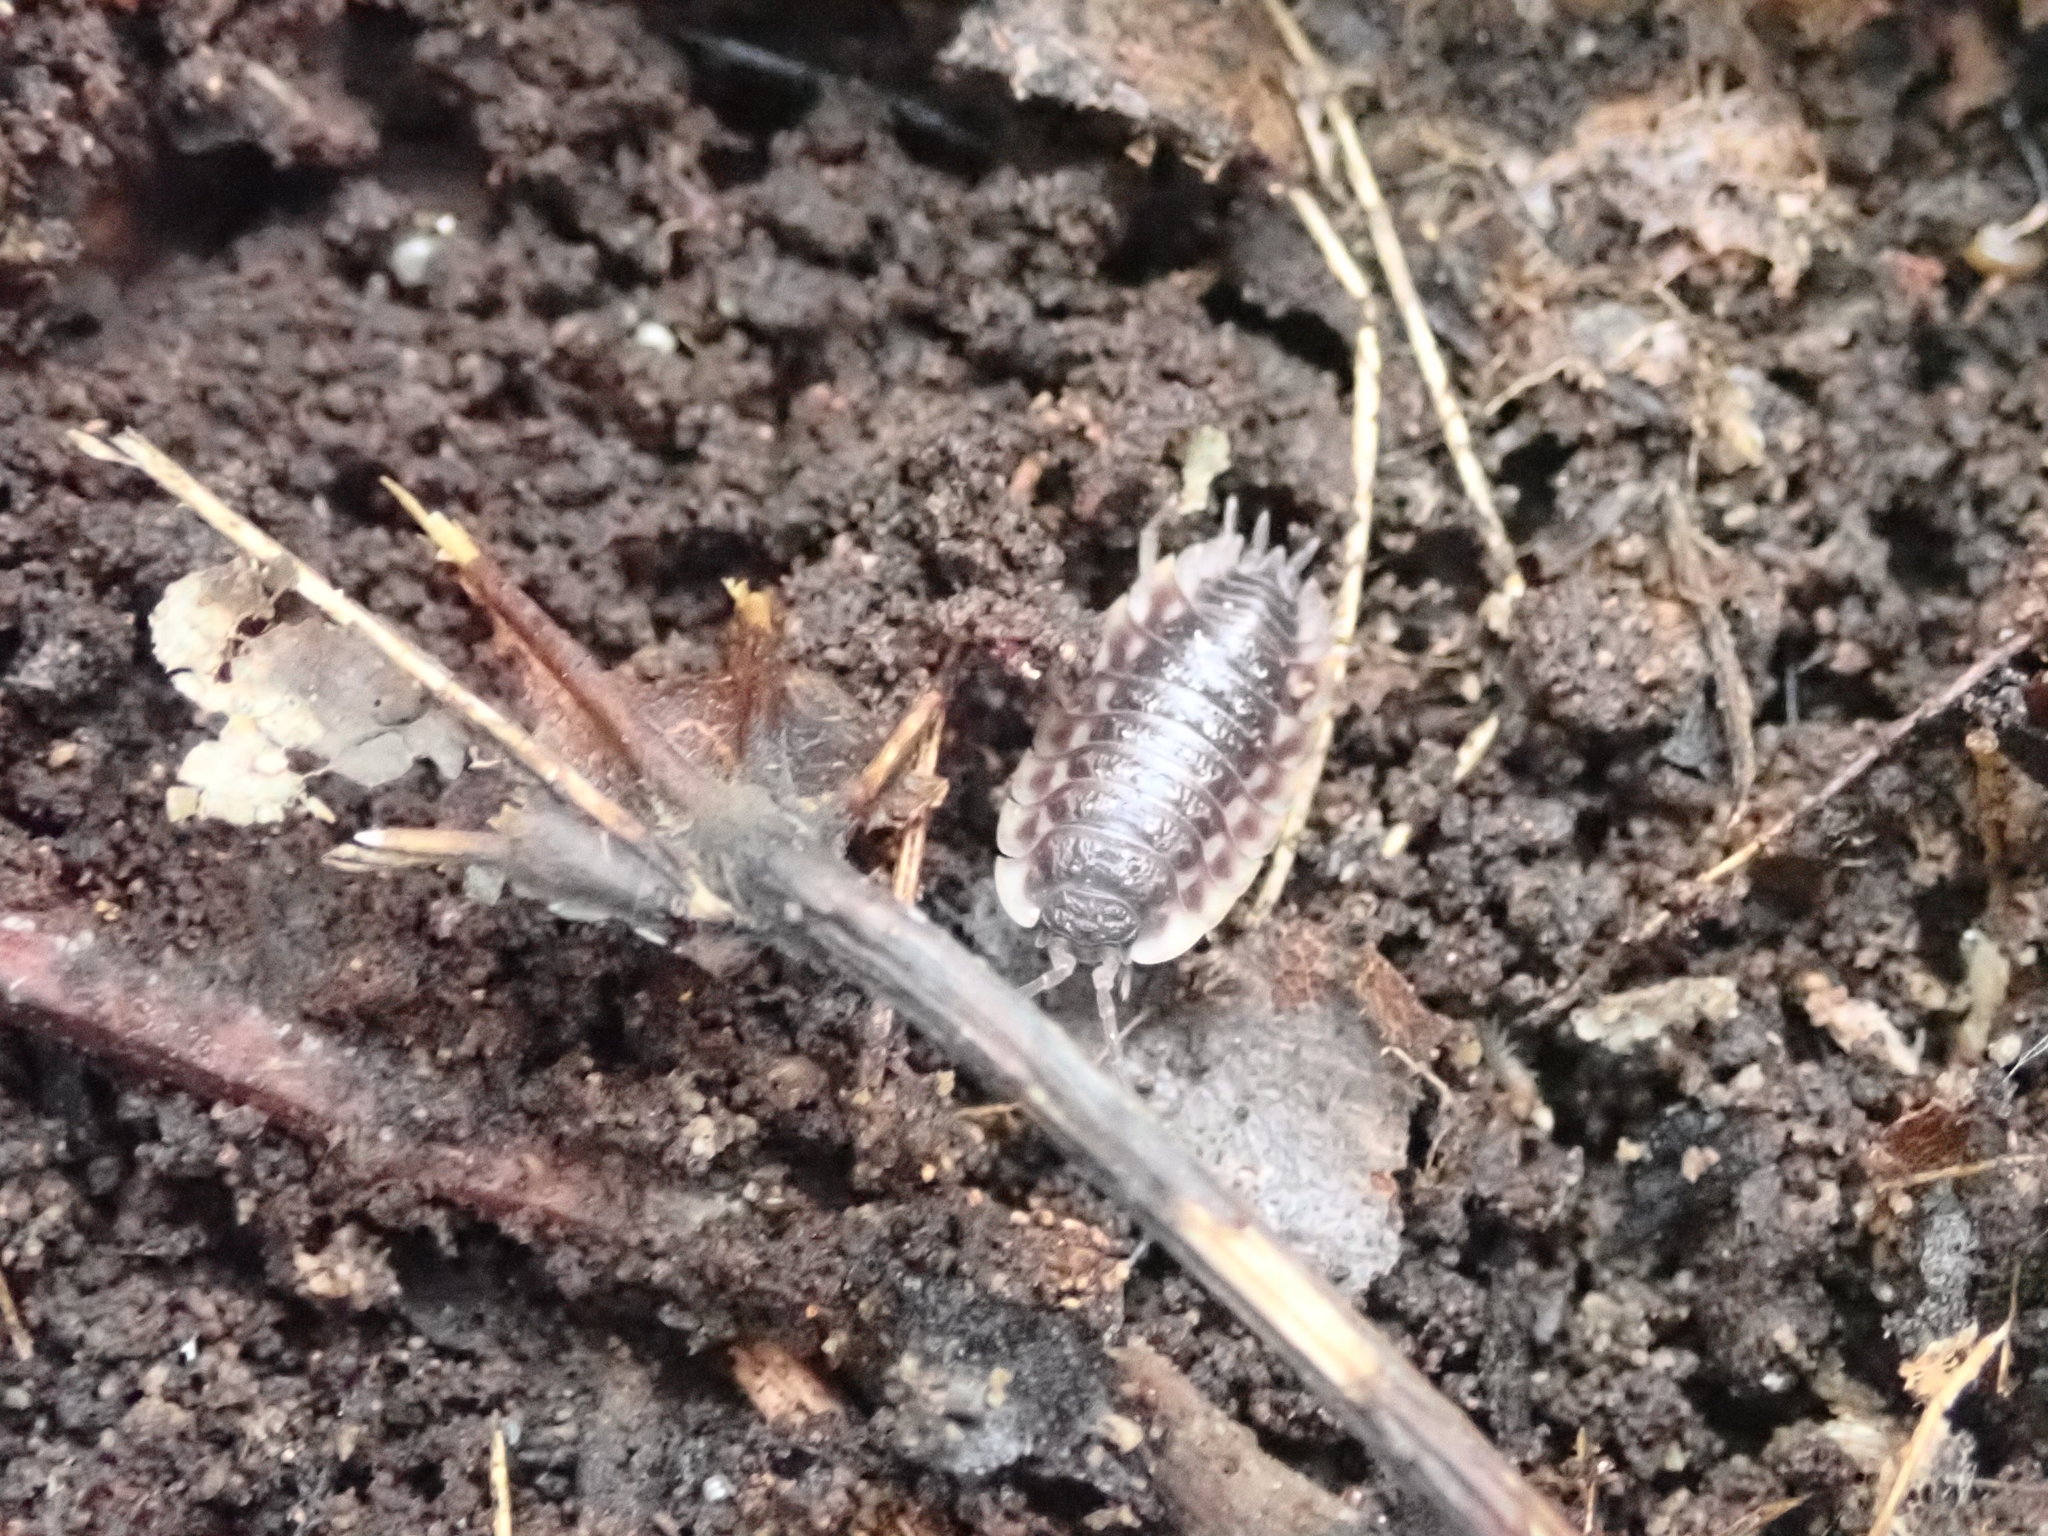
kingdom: Animalia
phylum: Arthropoda
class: Malacostraca
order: Isopoda
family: Oniscidae
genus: Oniscus
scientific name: Oniscus asellus
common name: Common shiny woodlouse
